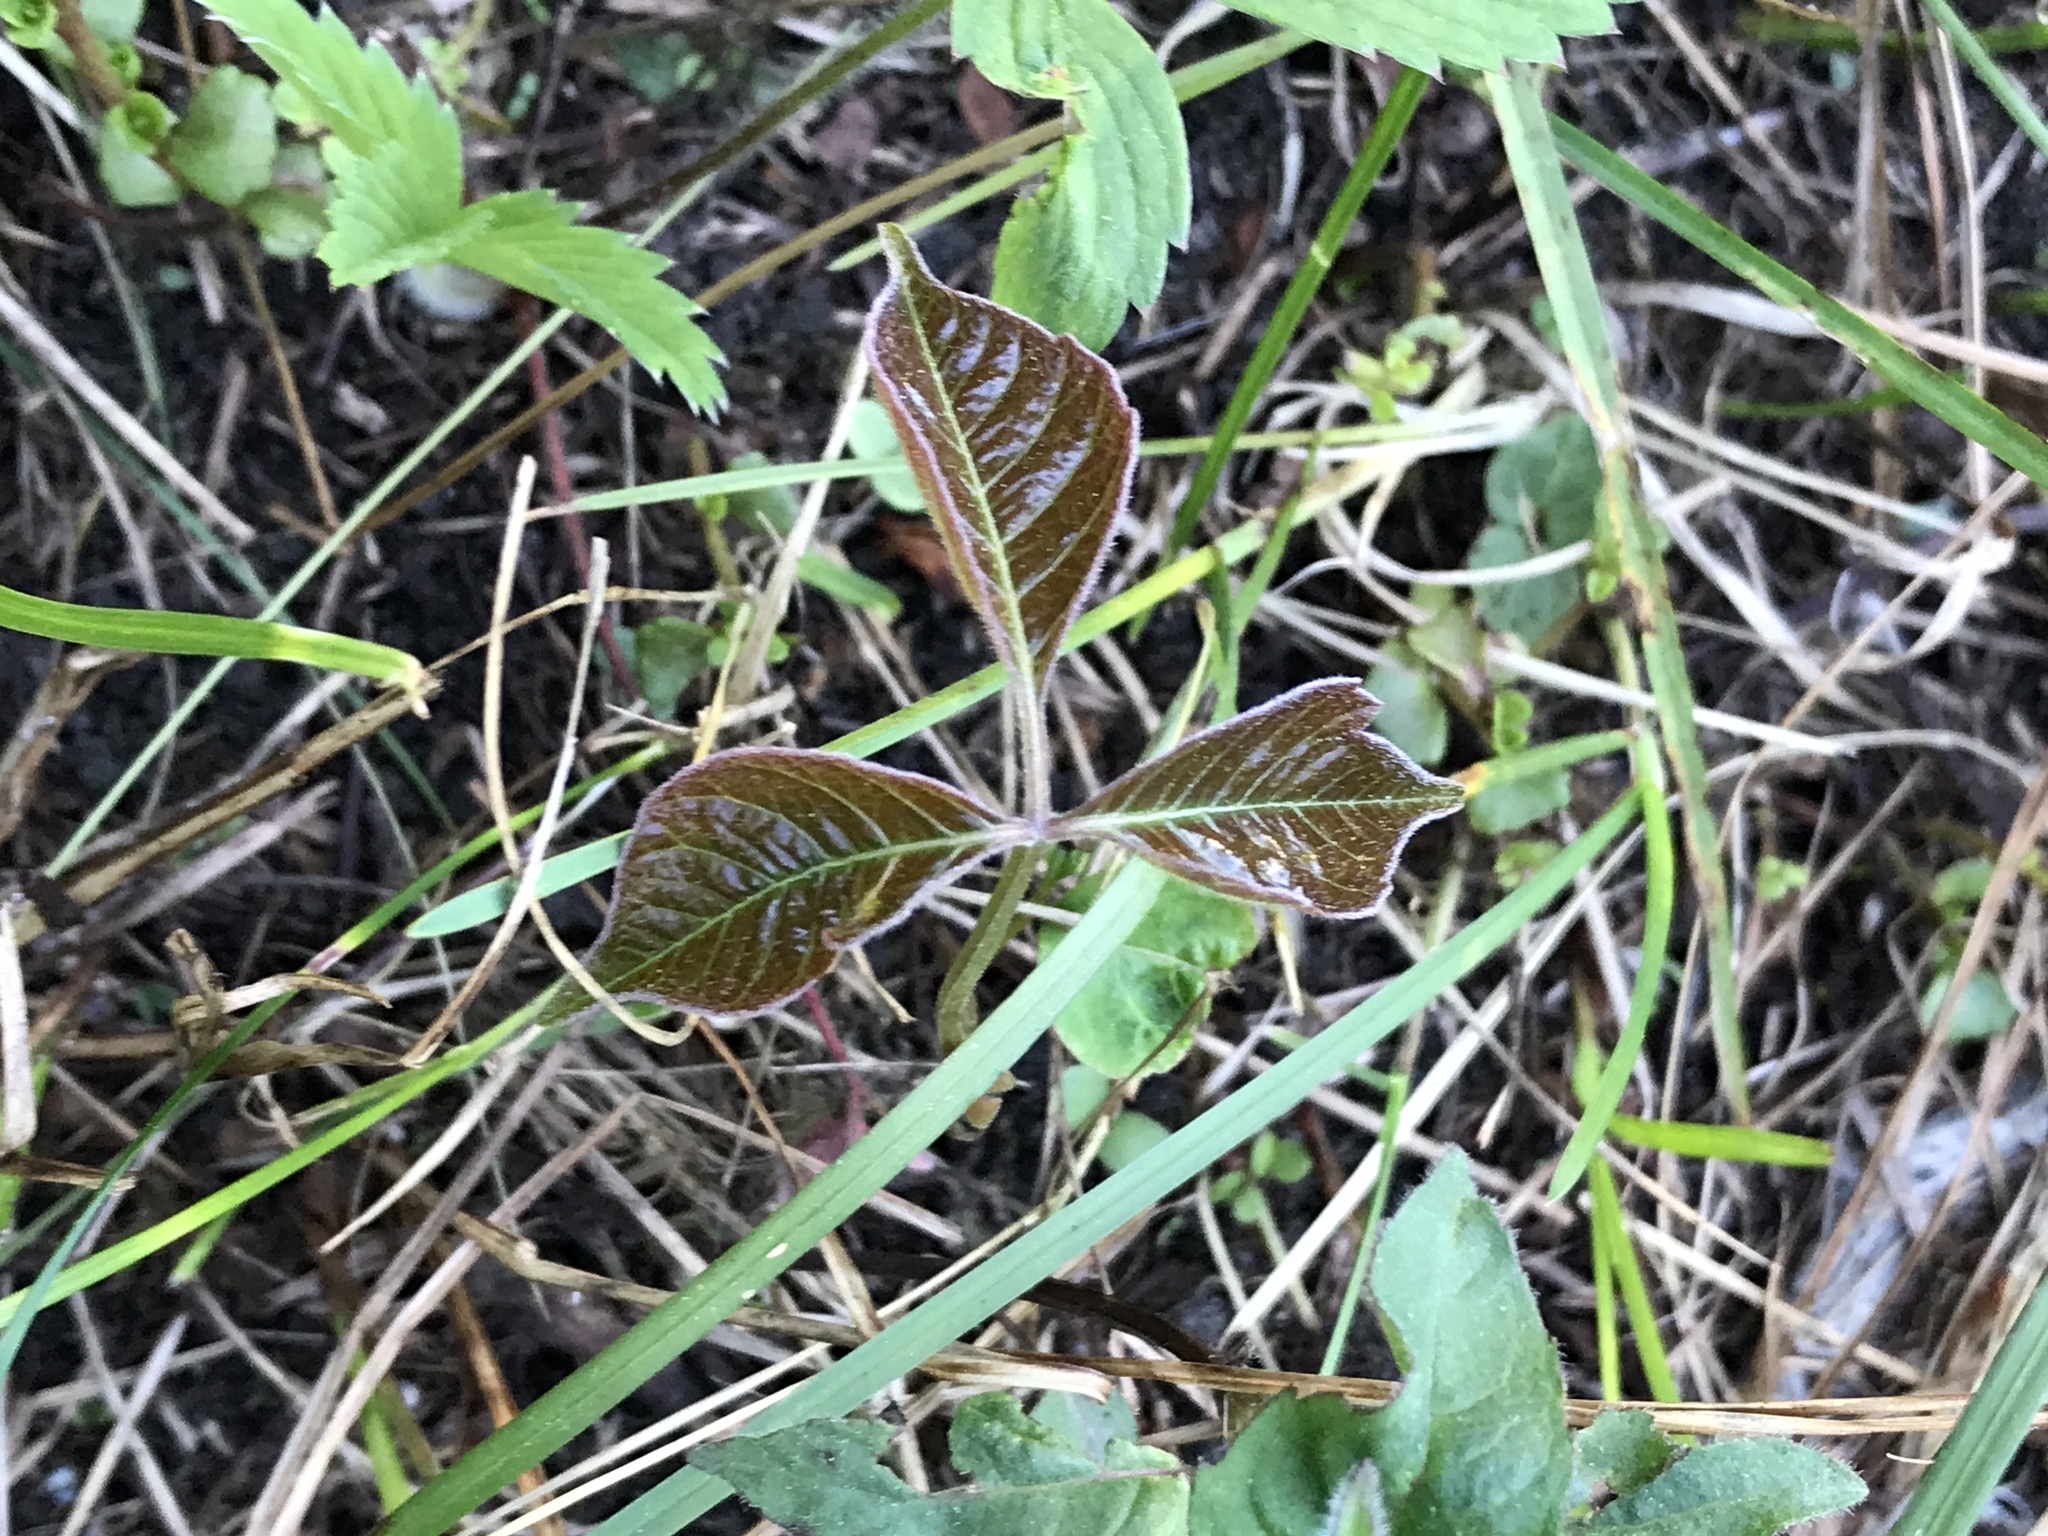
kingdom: Plantae
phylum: Tracheophyta
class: Magnoliopsida
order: Sapindales
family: Anacardiaceae
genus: Toxicodendron
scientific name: Toxicodendron radicans
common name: Poison ivy
